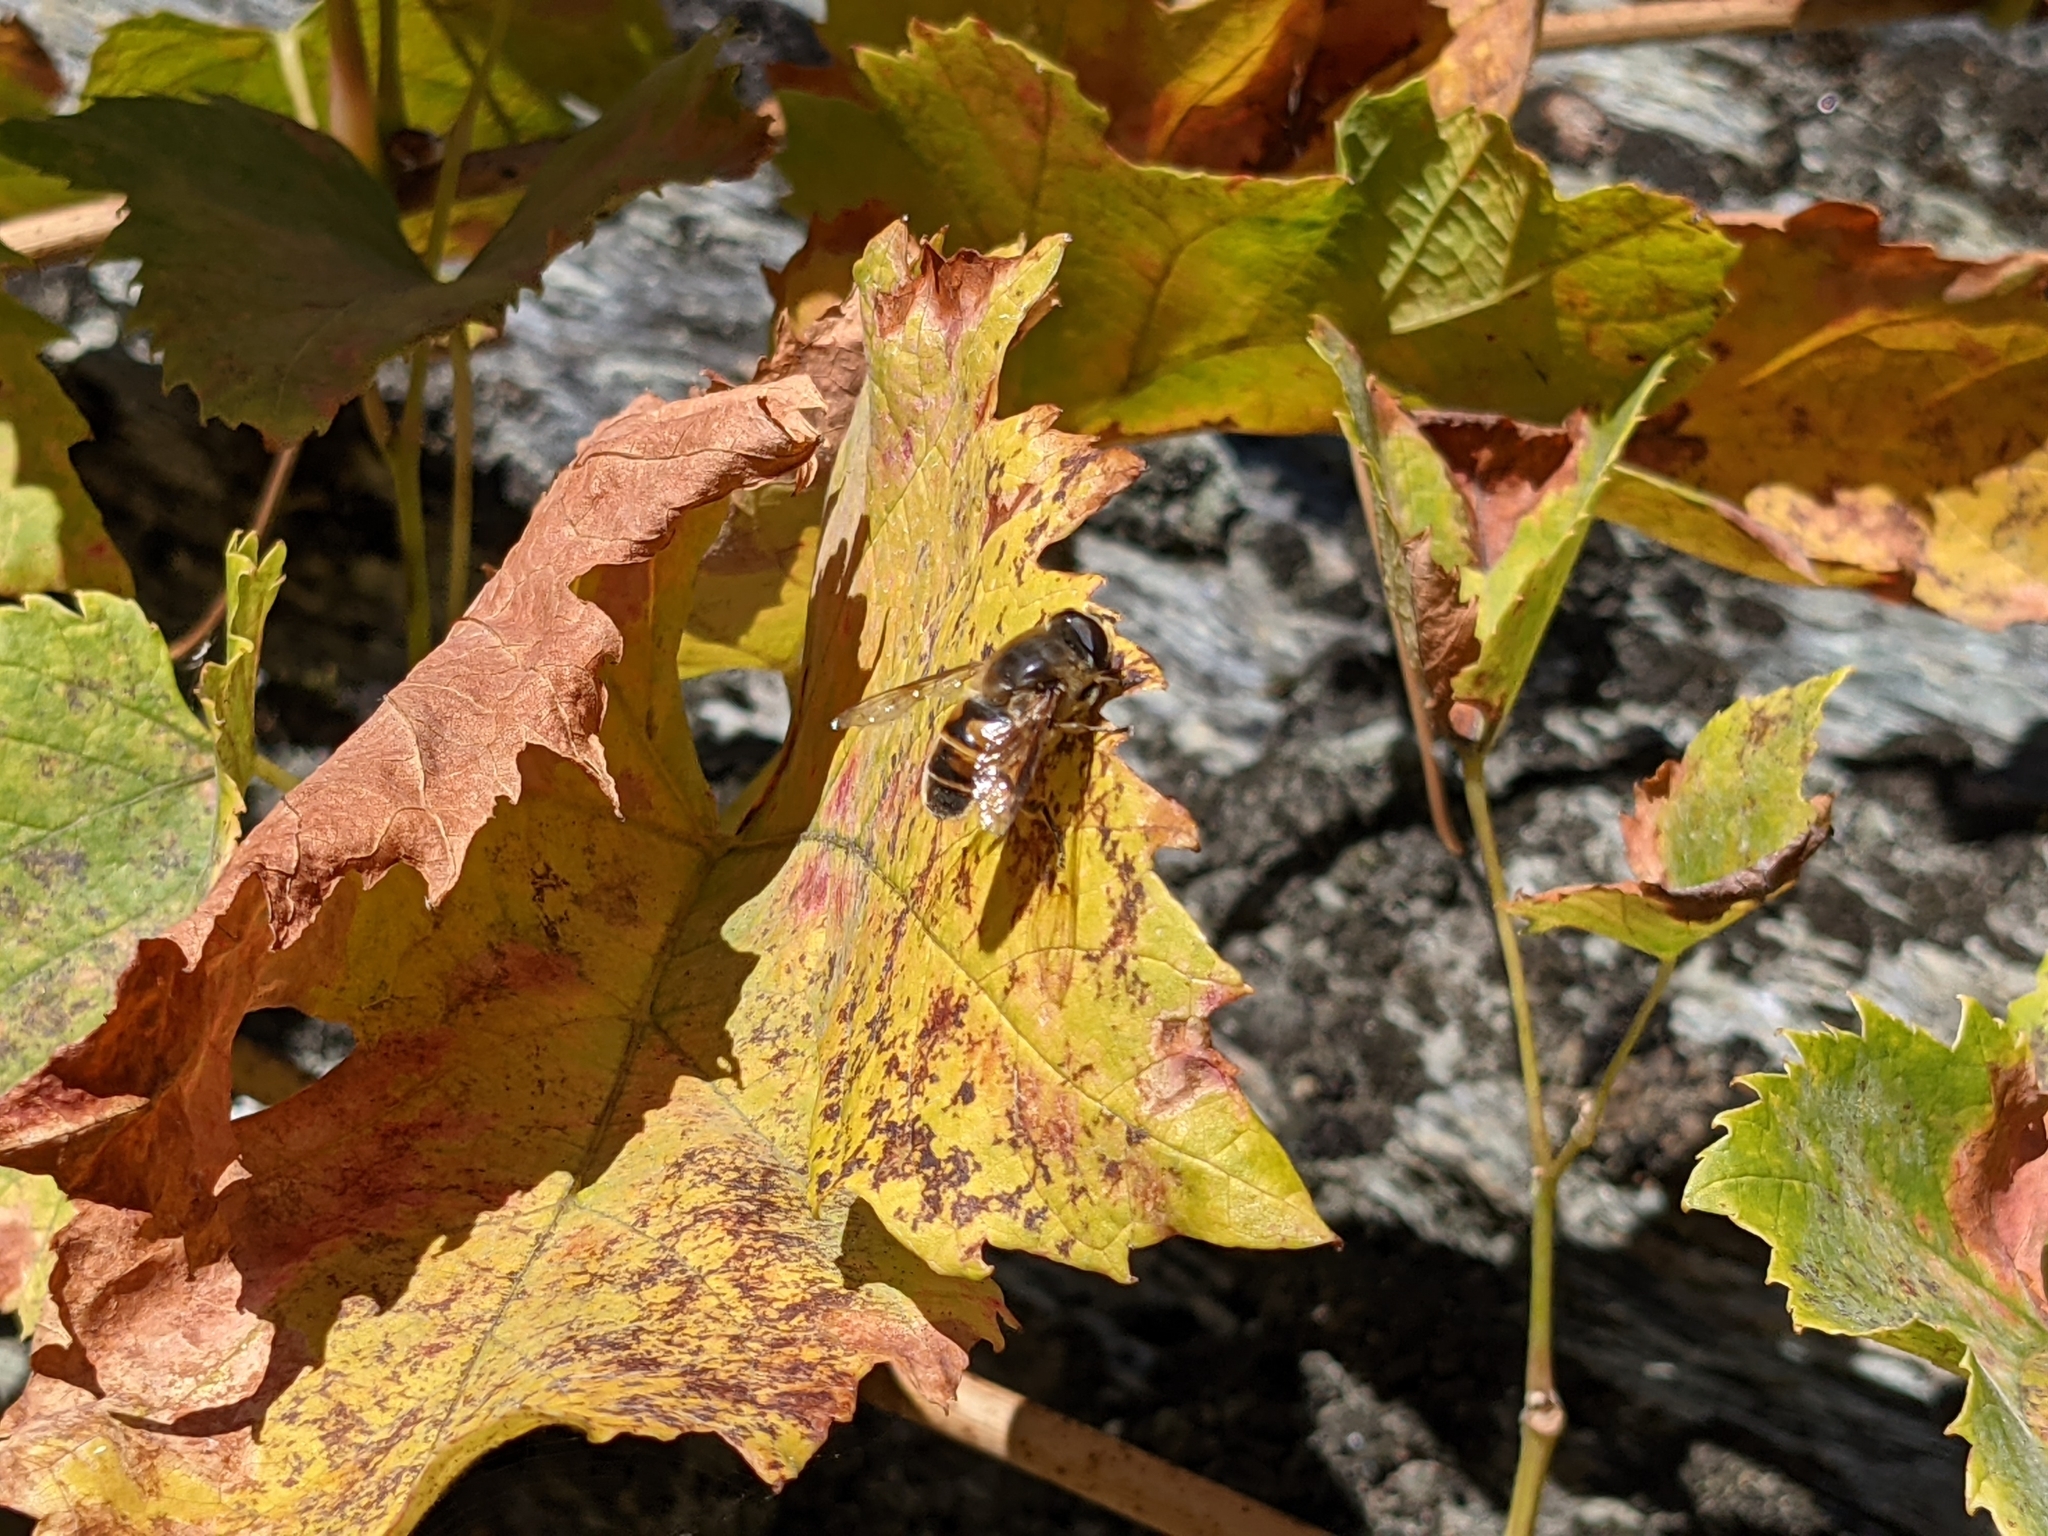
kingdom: Animalia
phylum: Arthropoda
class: Insecta
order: Diptera
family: Syrphidae
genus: Eristalis
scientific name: Eristalis tenax
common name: Drone fly
